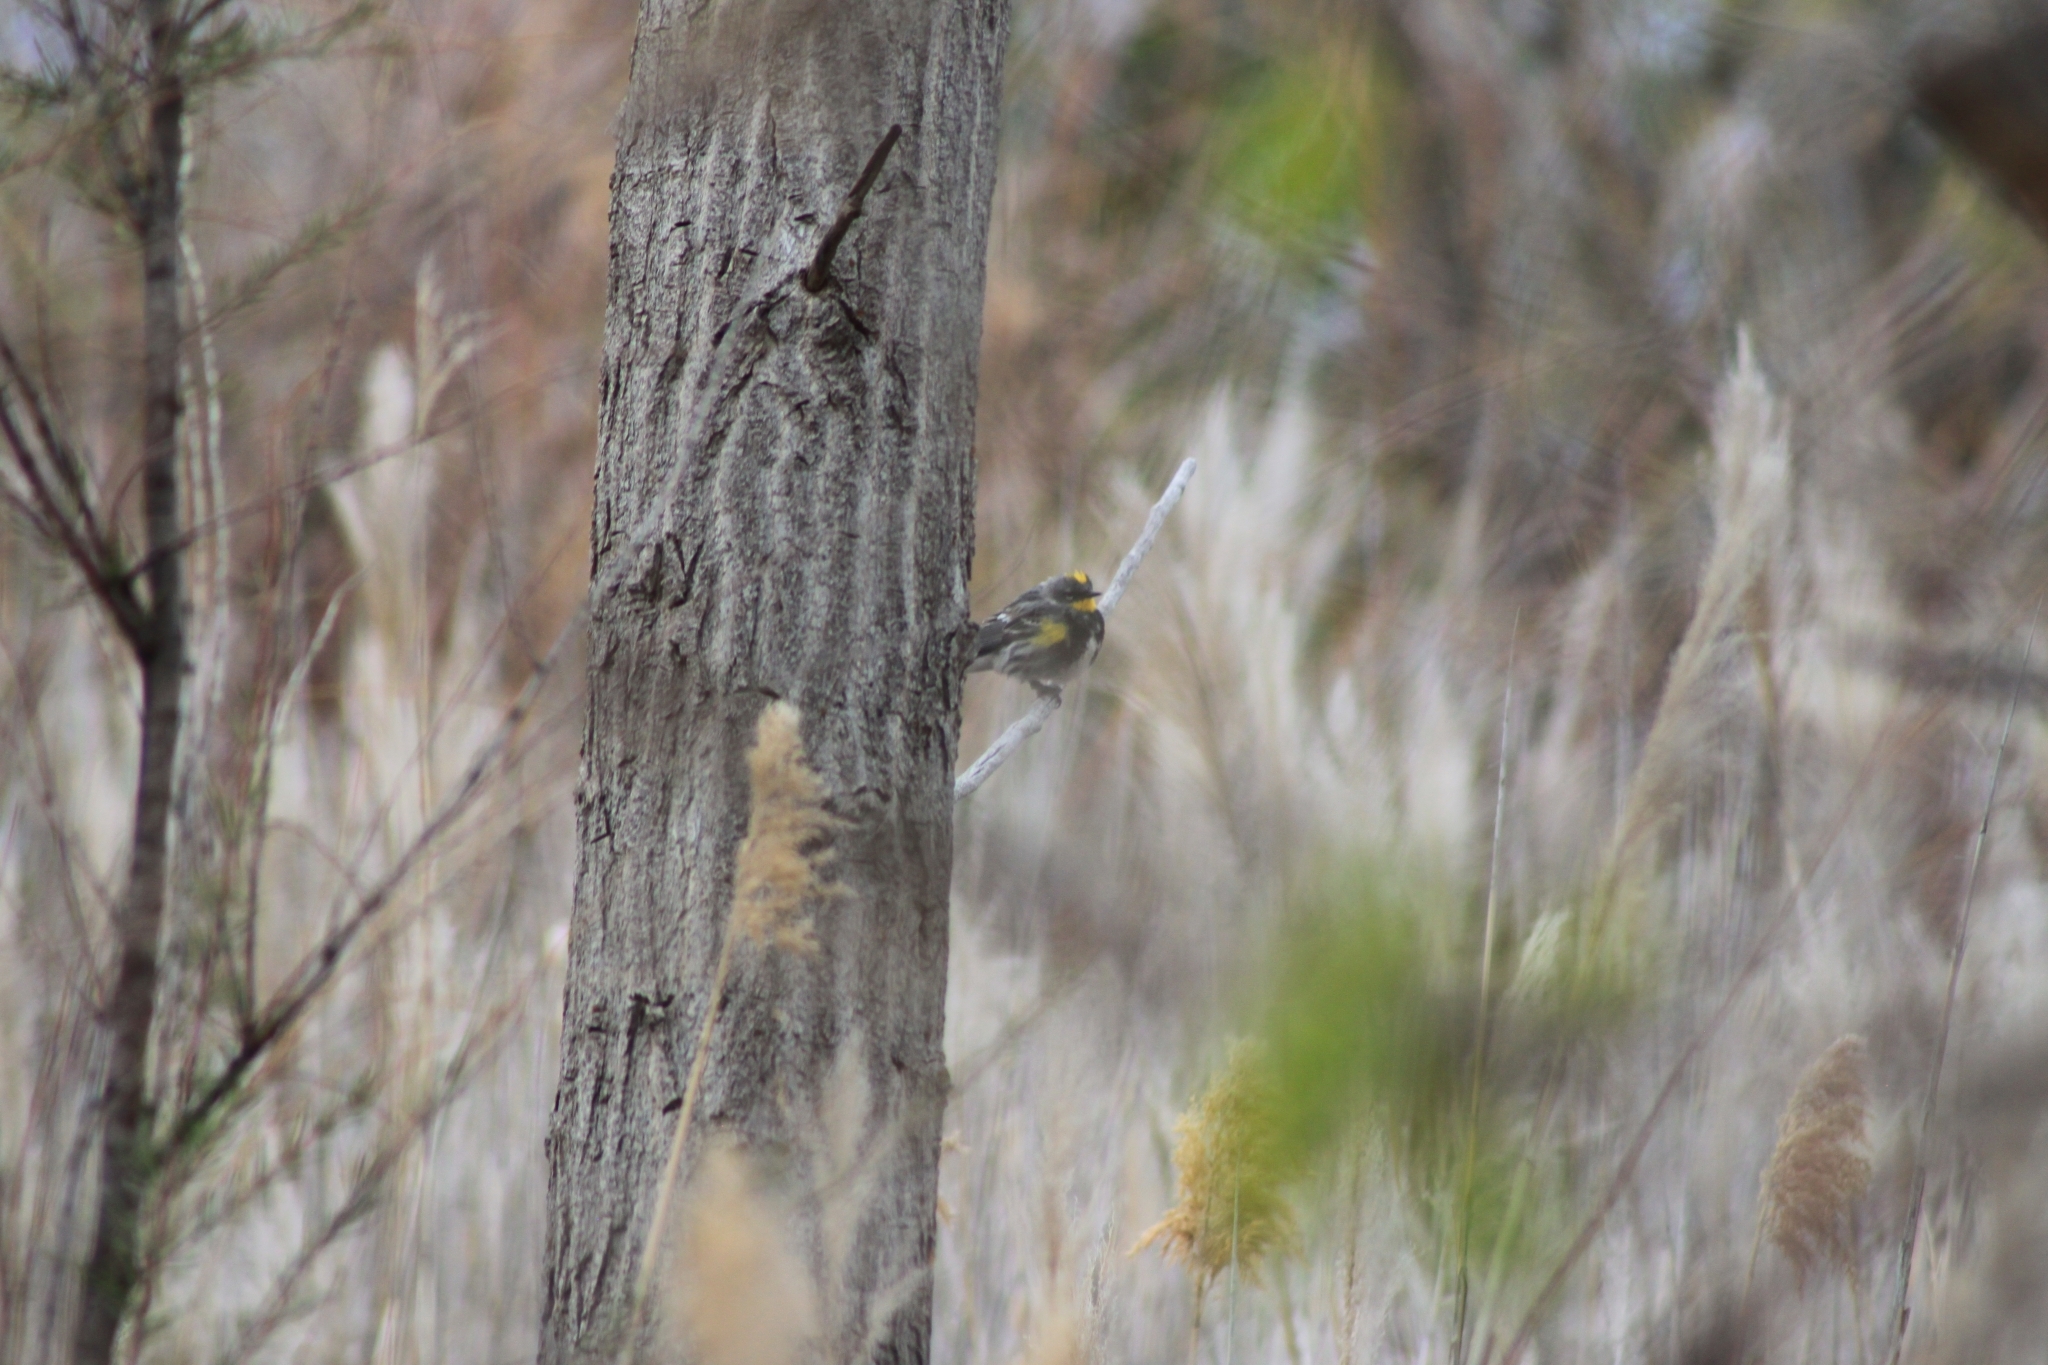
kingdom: Animalia
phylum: Chordata
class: Aves
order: Passeriformes
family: Parulidae
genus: Setophaga
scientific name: Setophaga coronata
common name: Myrtle warbler
